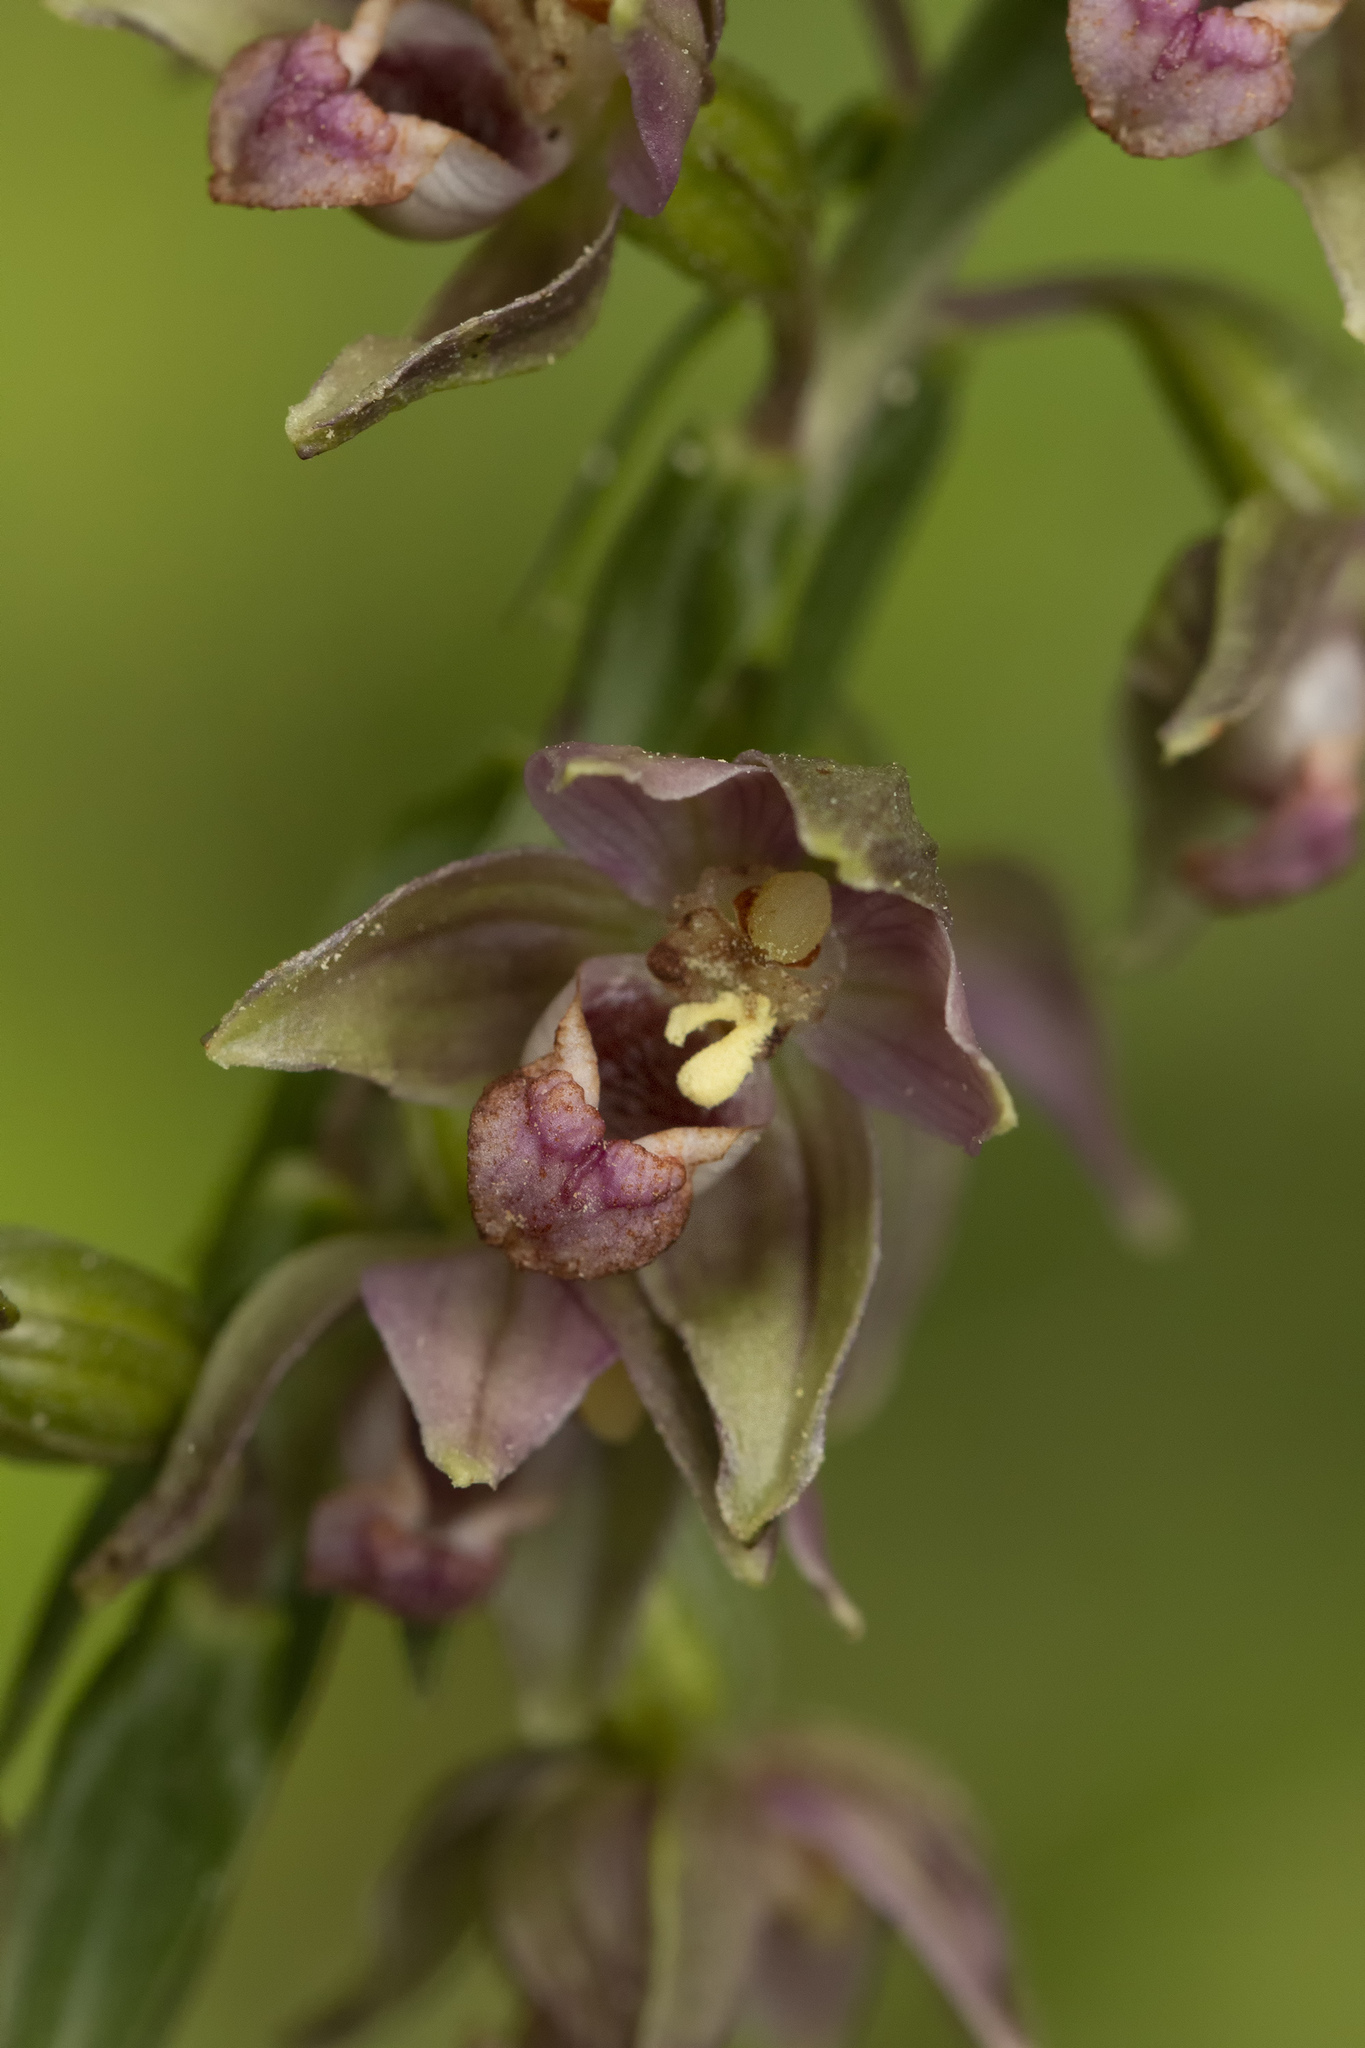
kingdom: Plantae
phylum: Tracheophyta
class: Liliopsida
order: Asparagales
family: Orchidaceae
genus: Epipactis
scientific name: Epipactis helleborine
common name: Broad-leaved helleborine
